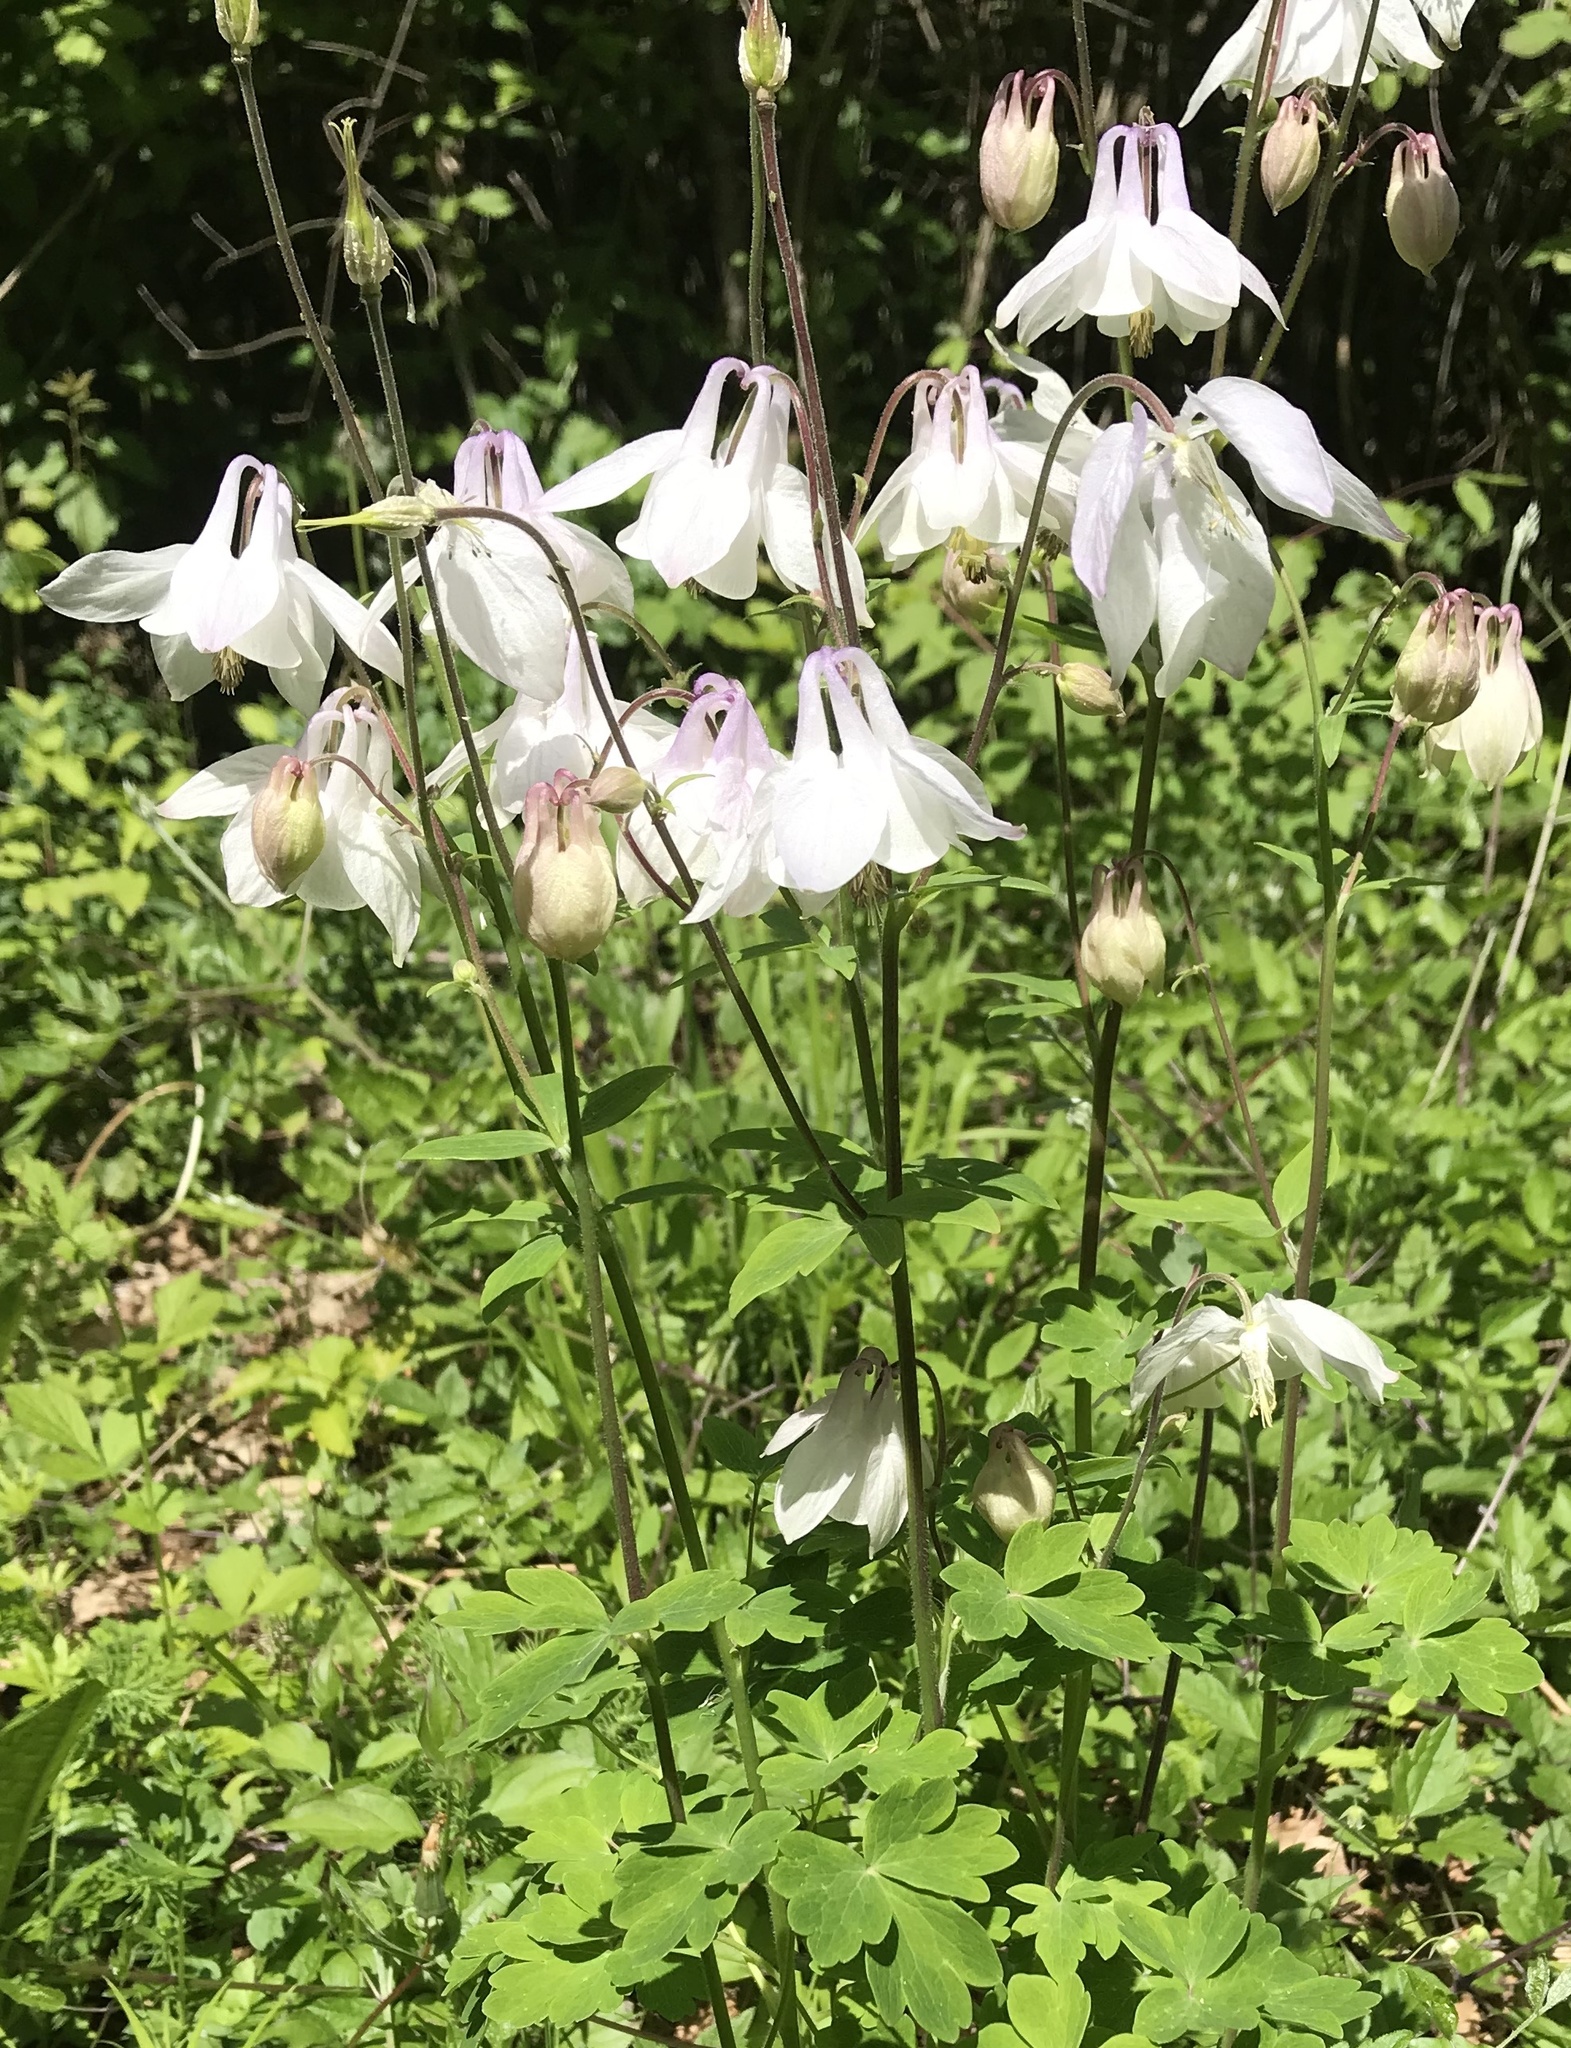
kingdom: Plantae
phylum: Tracheophyta
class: Magnoliopsida
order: Ranunculales
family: Ranunculaceae
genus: Aquilegia
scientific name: Aquilegia vulgaris
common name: Columbine
